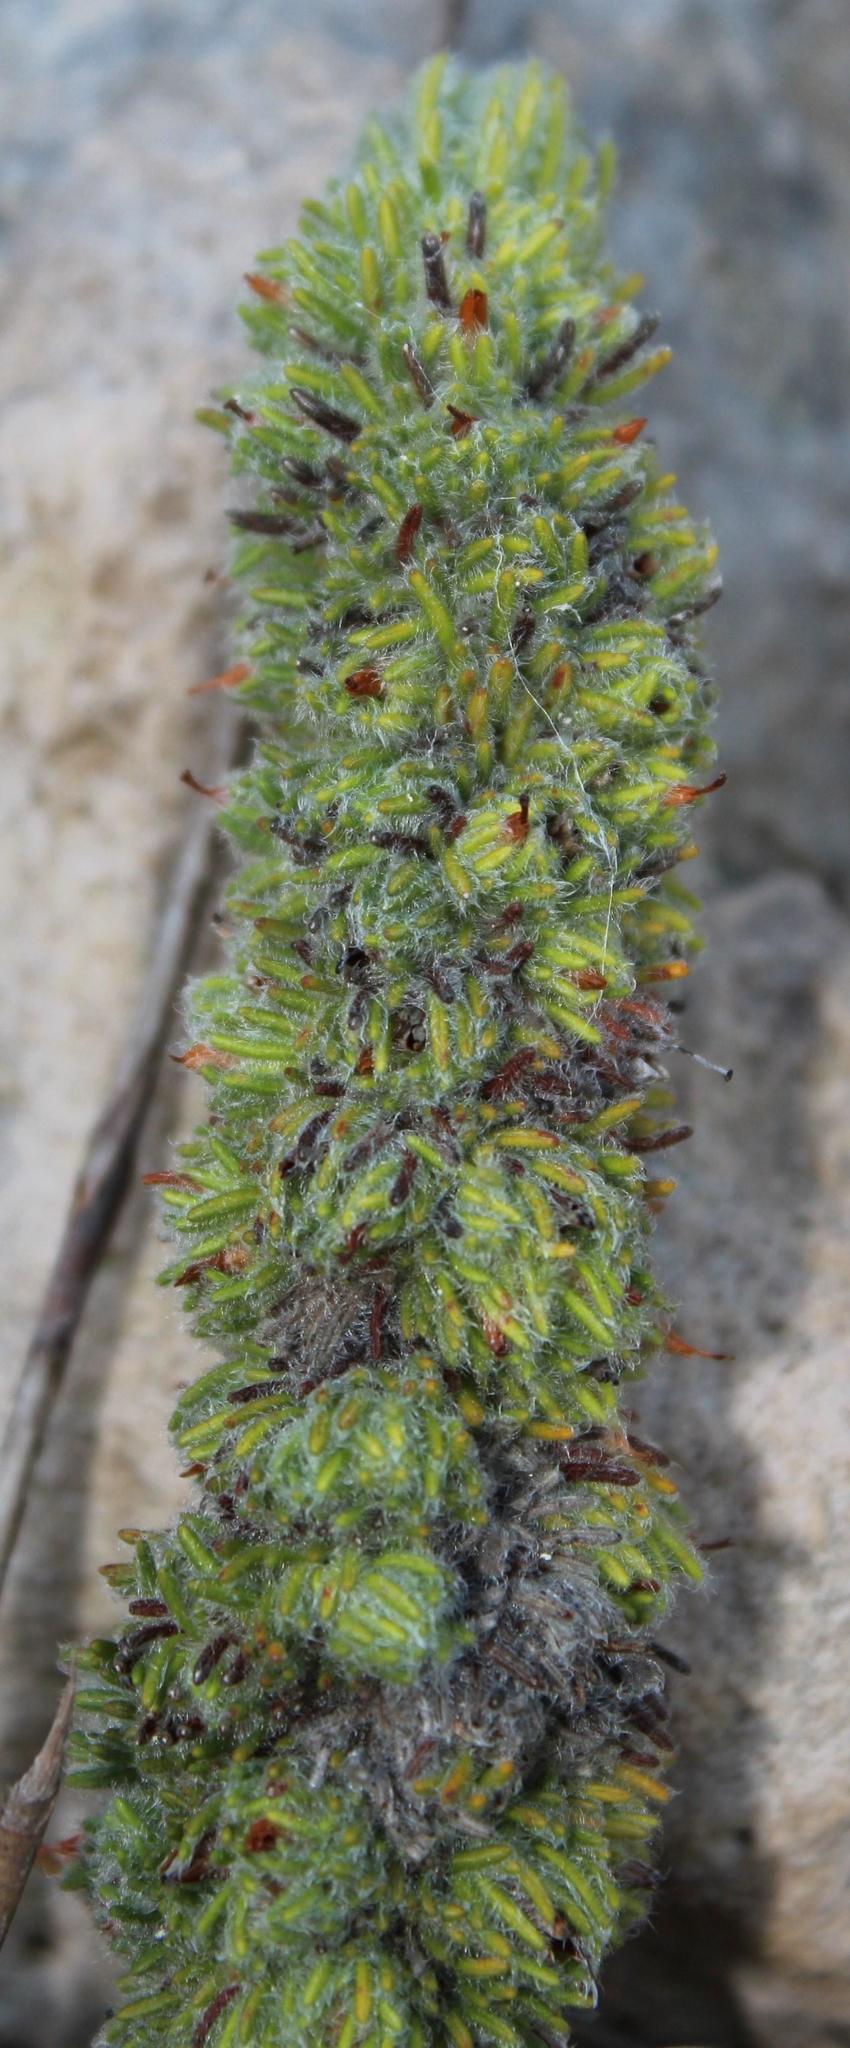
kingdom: Plantae
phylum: Tracheophyta
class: Magnoliopsida
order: Ericales
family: Ericaceae
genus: Erica
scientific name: Erica occulta
